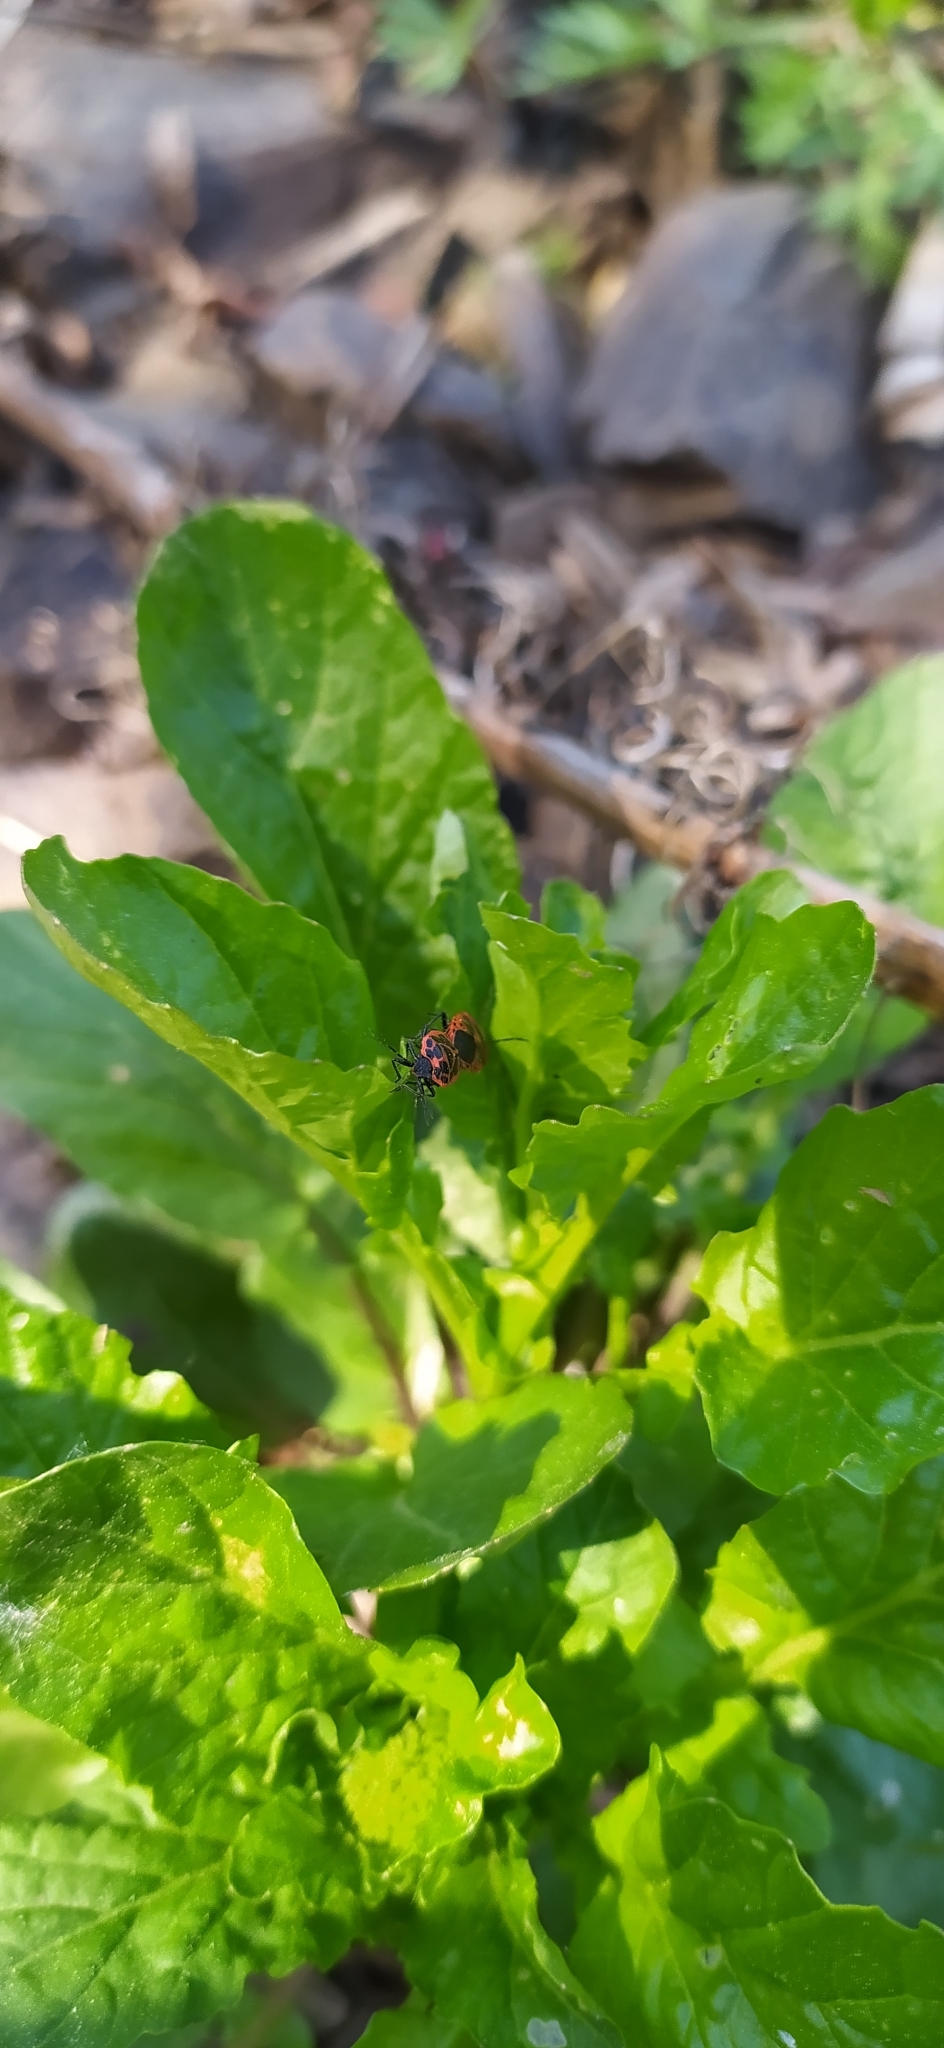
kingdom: Animalia
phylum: Arthropoda
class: Insecta
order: Hemiptera
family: Pentatomidae
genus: Eurydema
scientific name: Eurydema dominulus
